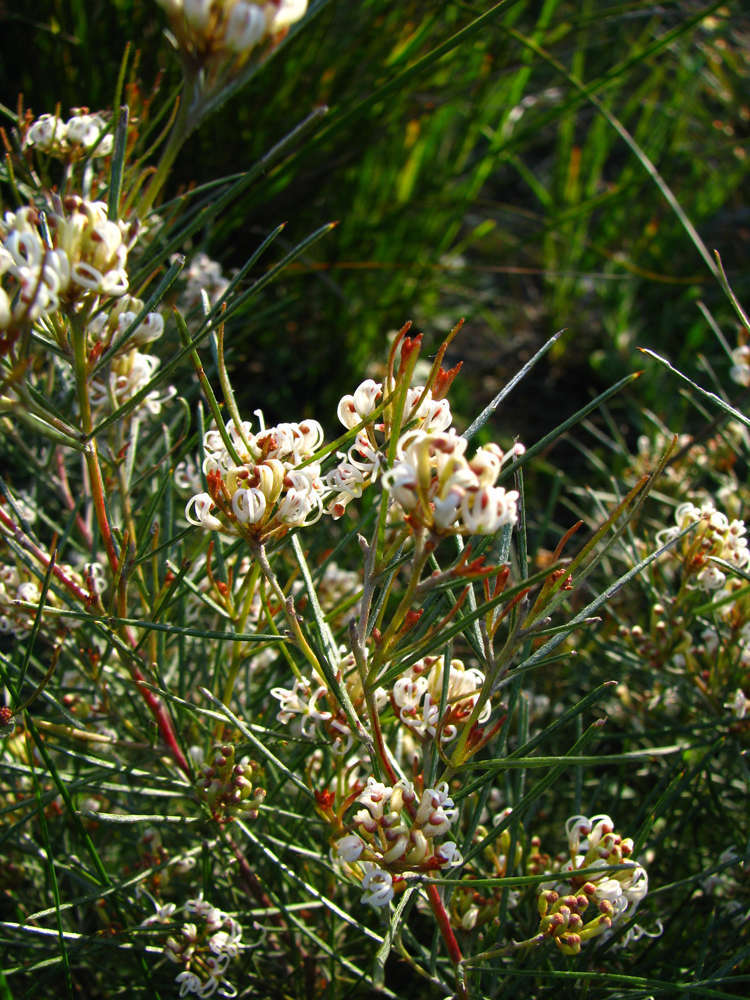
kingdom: Plantae
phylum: Tracheophyta
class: Magnoliopsida
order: Proteales
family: Proteaceae
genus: Grevillea
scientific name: Grevillea micrantha
